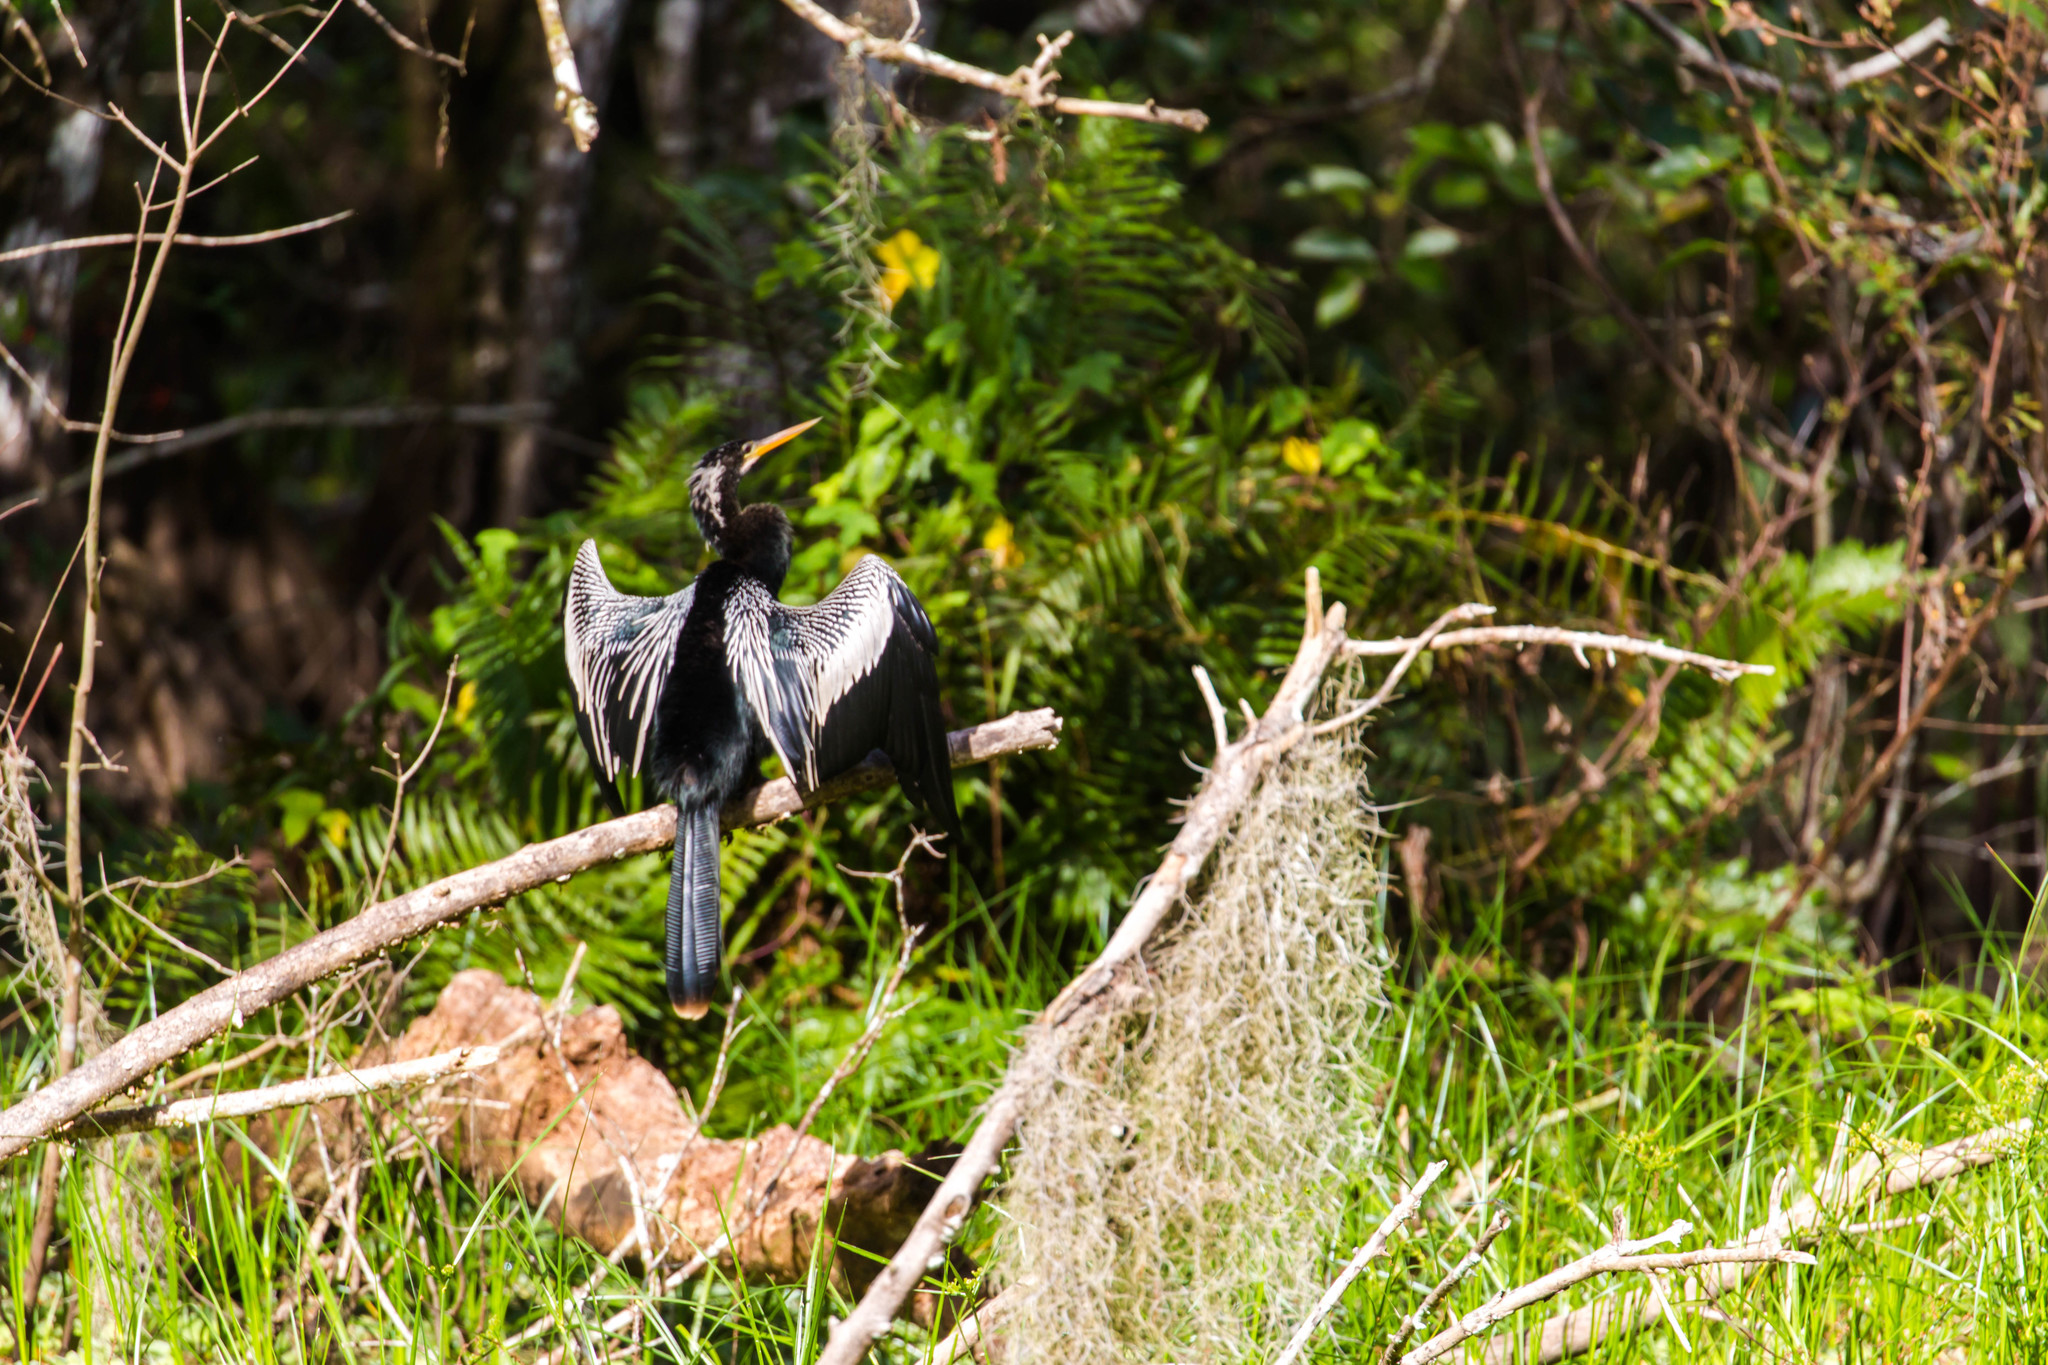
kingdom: Animalia
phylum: Chordata
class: Aves
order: Suliformes
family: Anhingidae
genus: Anhinga
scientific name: Anhinga anhinga
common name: Anhinga
